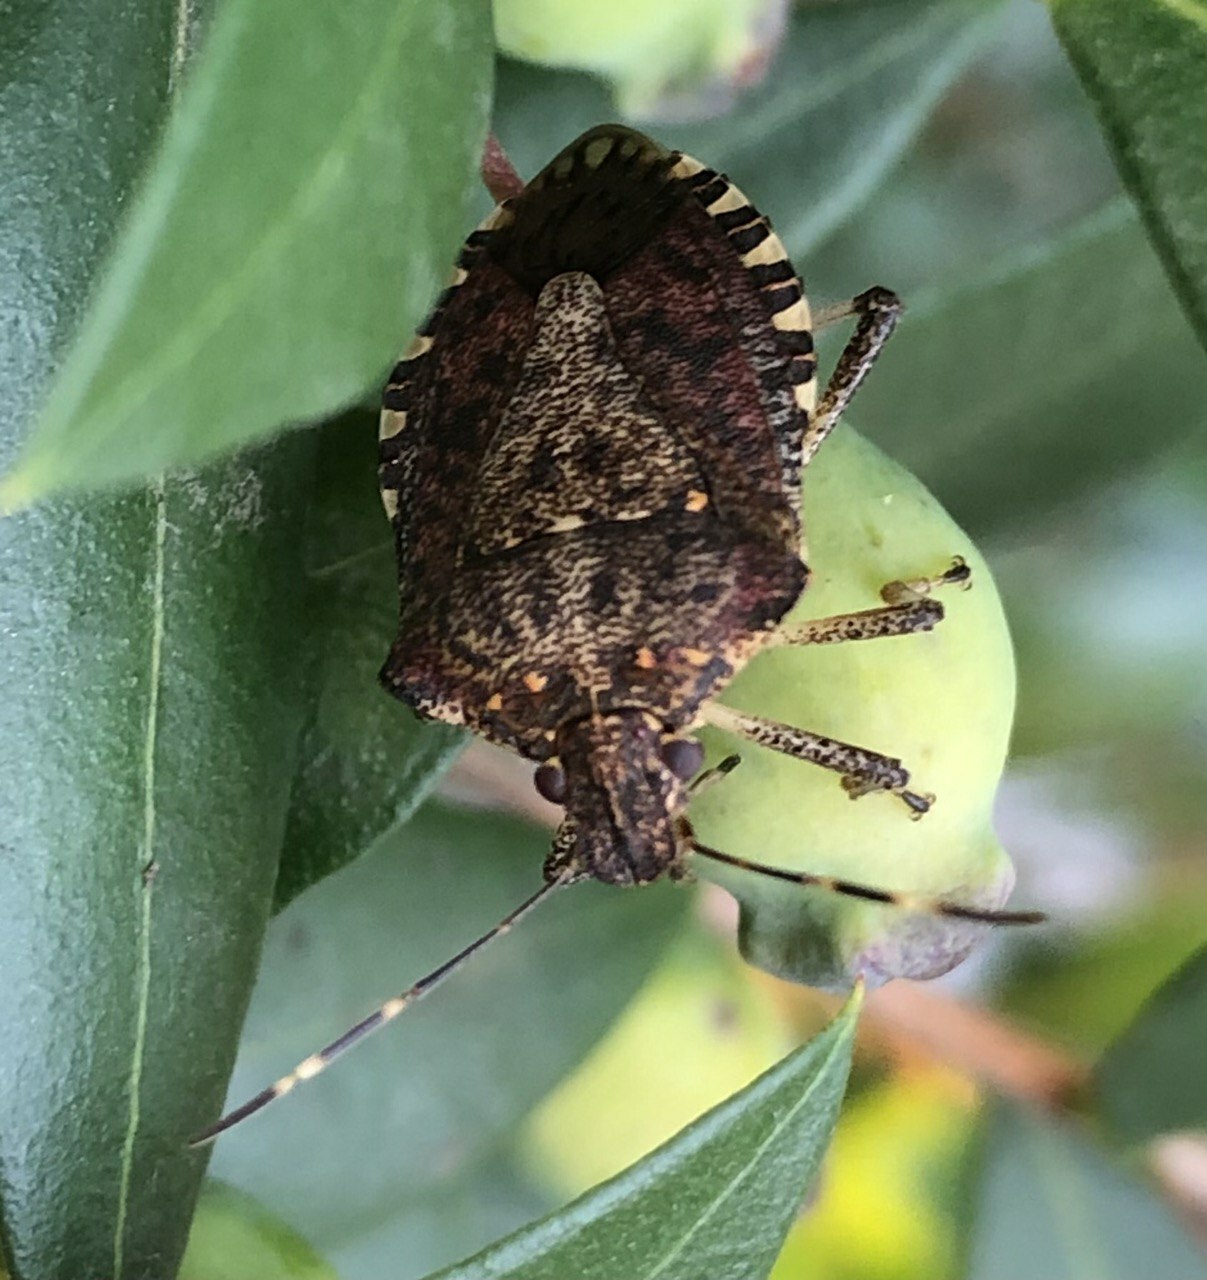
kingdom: Animalia
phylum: Arthropoda
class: Insecta
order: Hemiptera
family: Pentatomidae
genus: Halyomorpha
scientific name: Halyomorpha halys
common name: Brown marmorated stink bug
